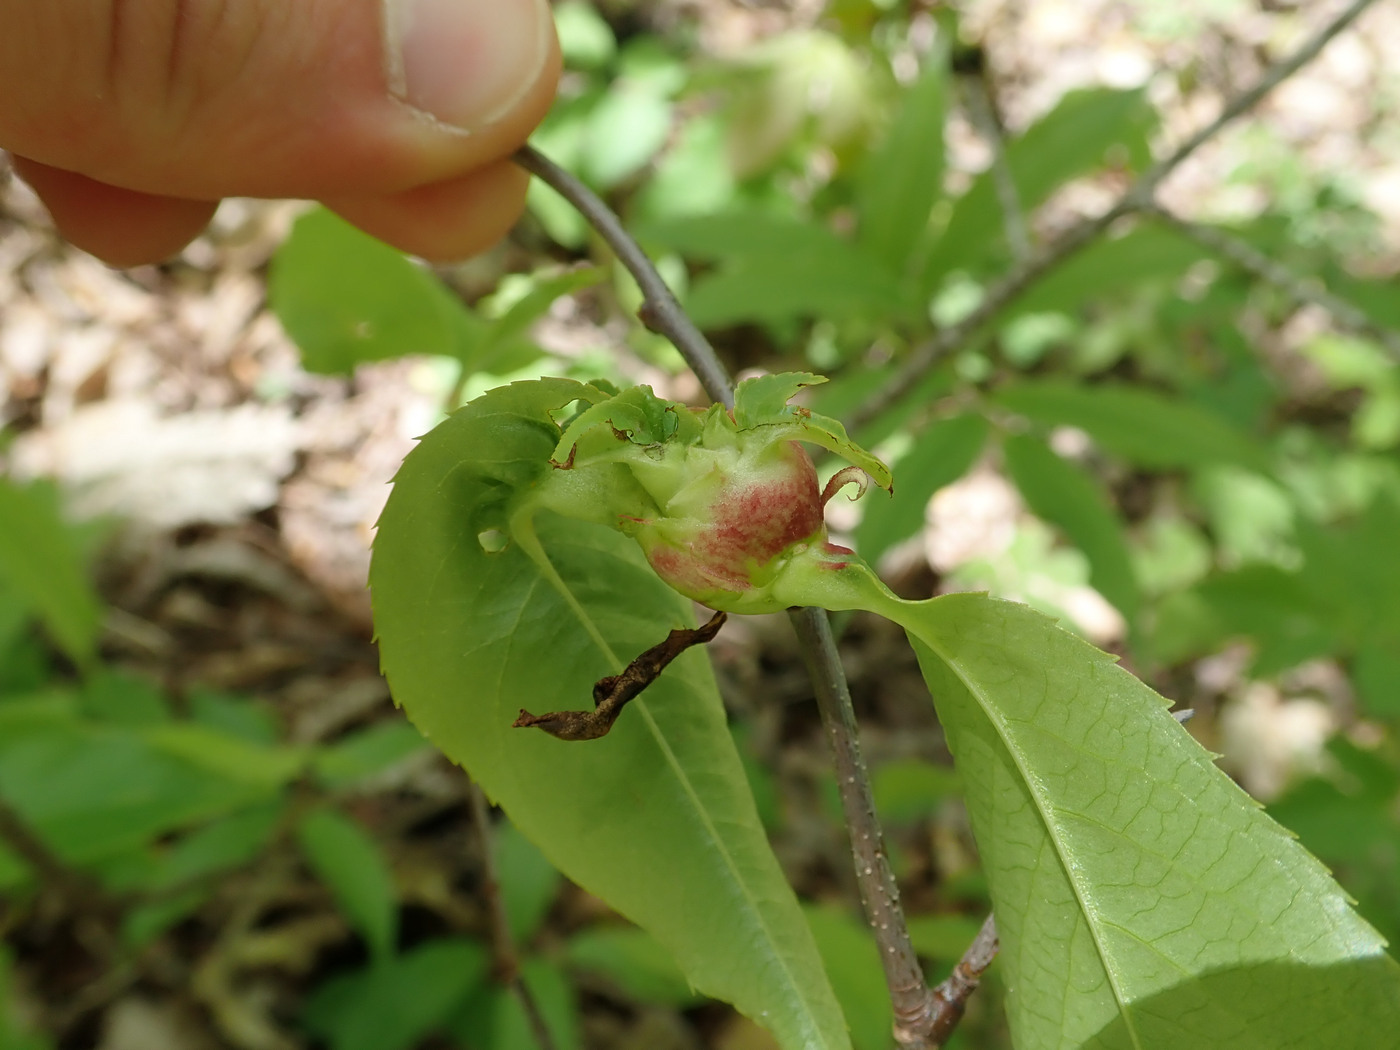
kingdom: Animalia
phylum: Arthropoda
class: Insecta
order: Diptera
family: Cecidomyiidae
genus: Contarinia
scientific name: Contarinia cerasiserotinae
